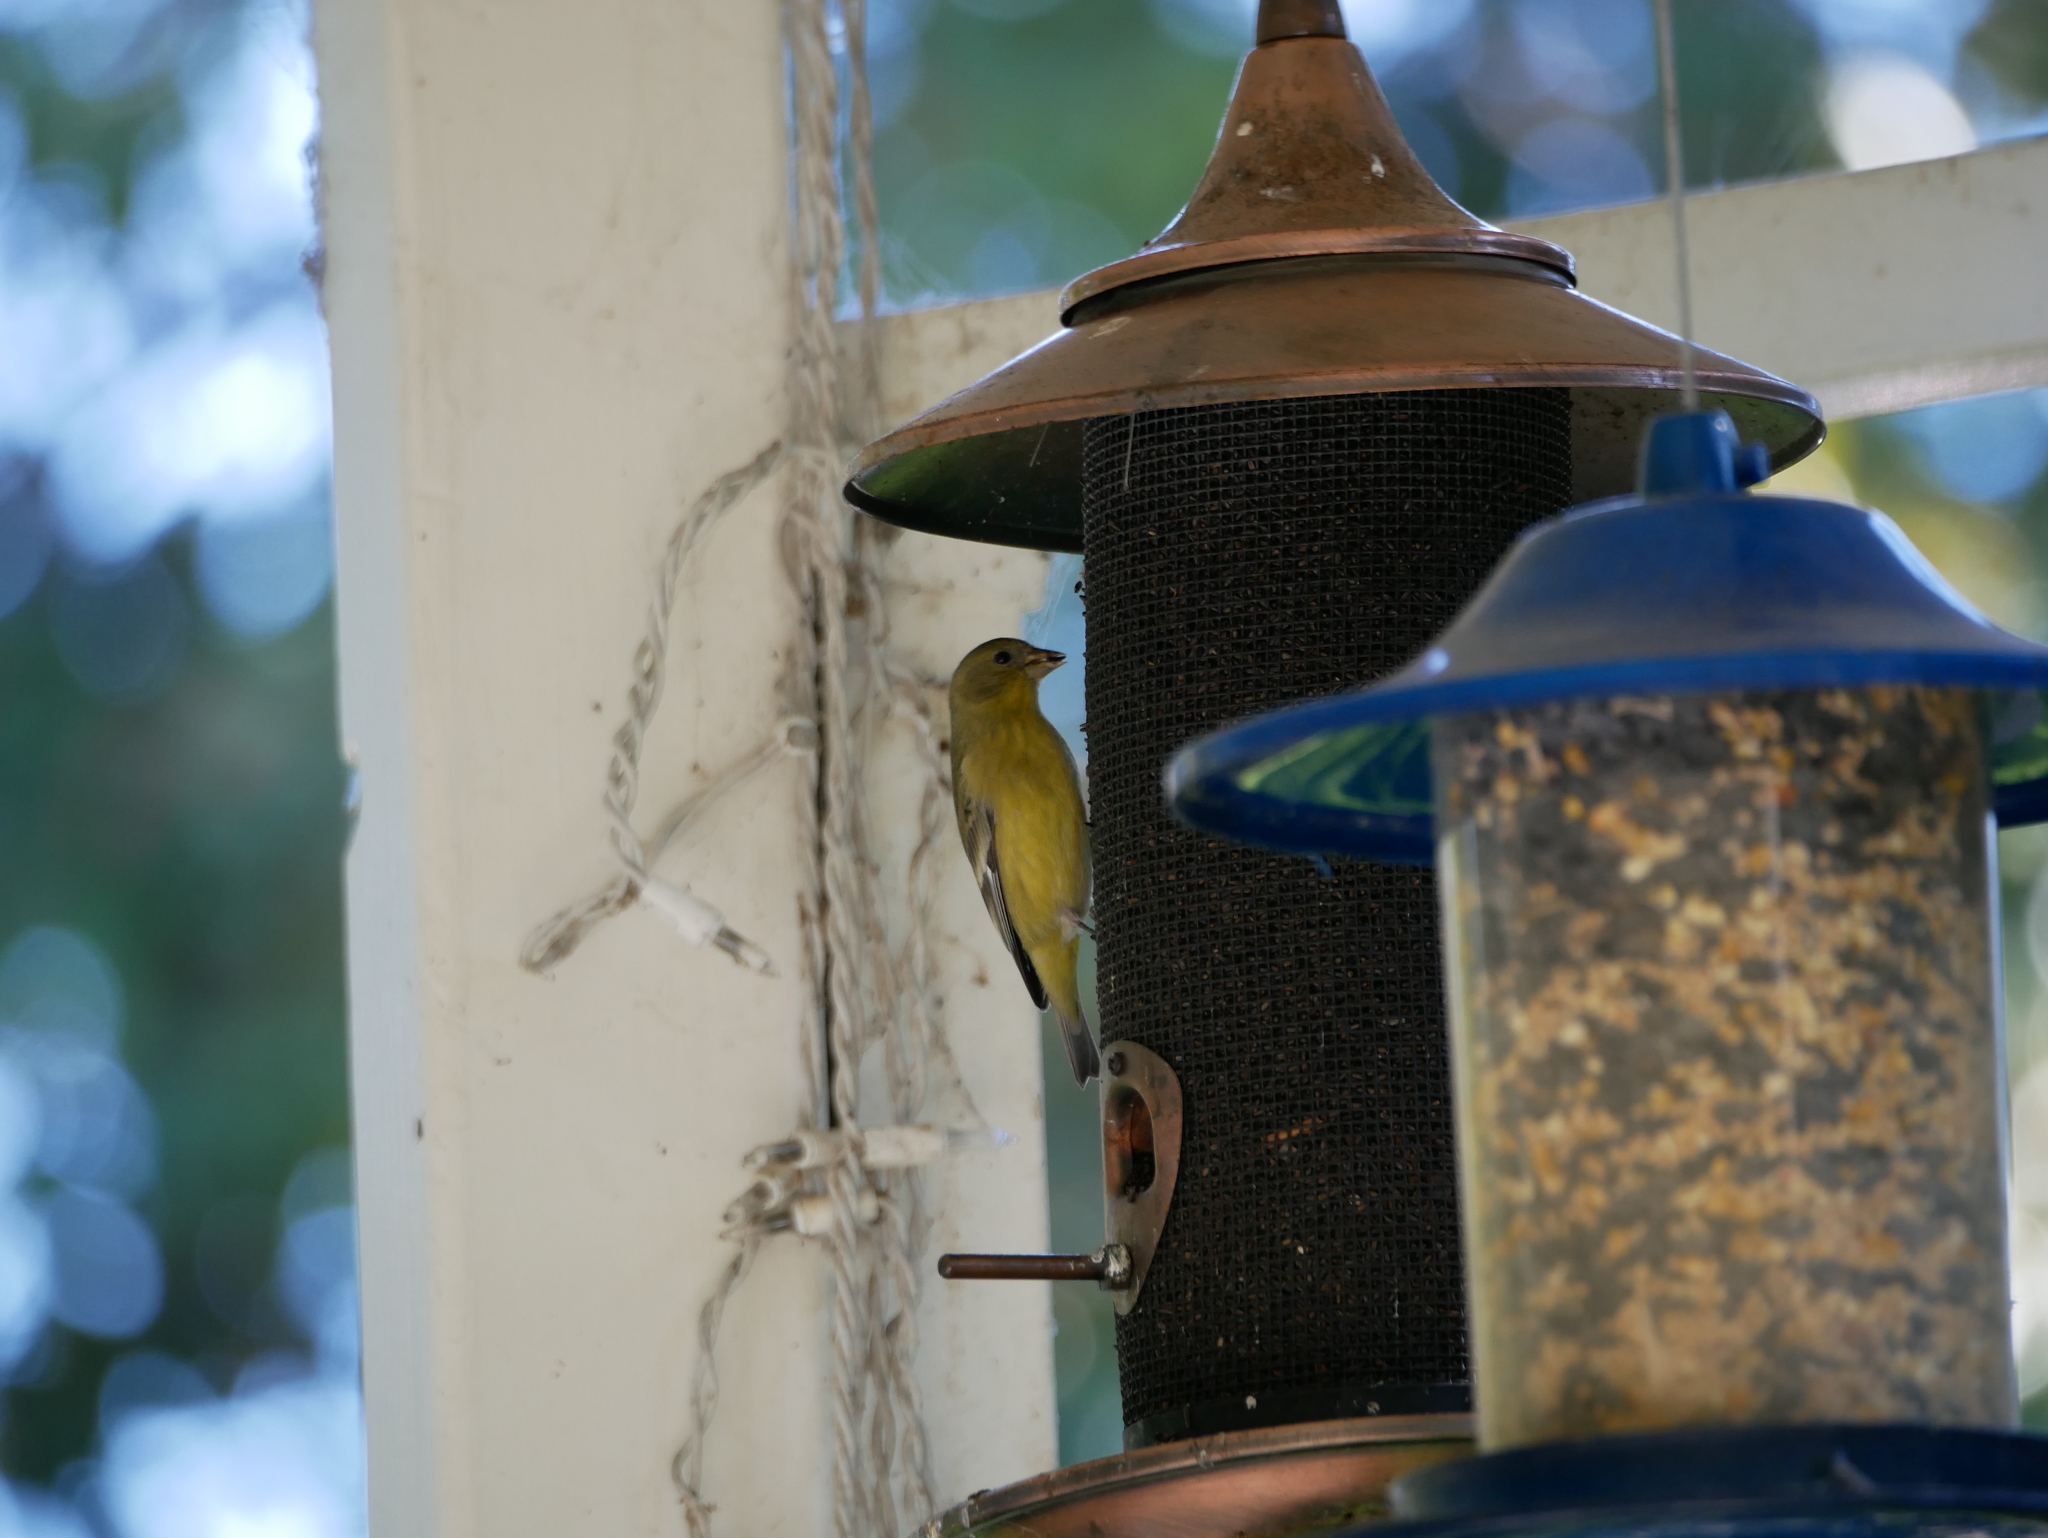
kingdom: Animalia
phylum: Chordata
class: Aves
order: Passeriformes
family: Fringillidae
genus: Spinus
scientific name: Spinus psaltria
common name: Lesser goldfinch
